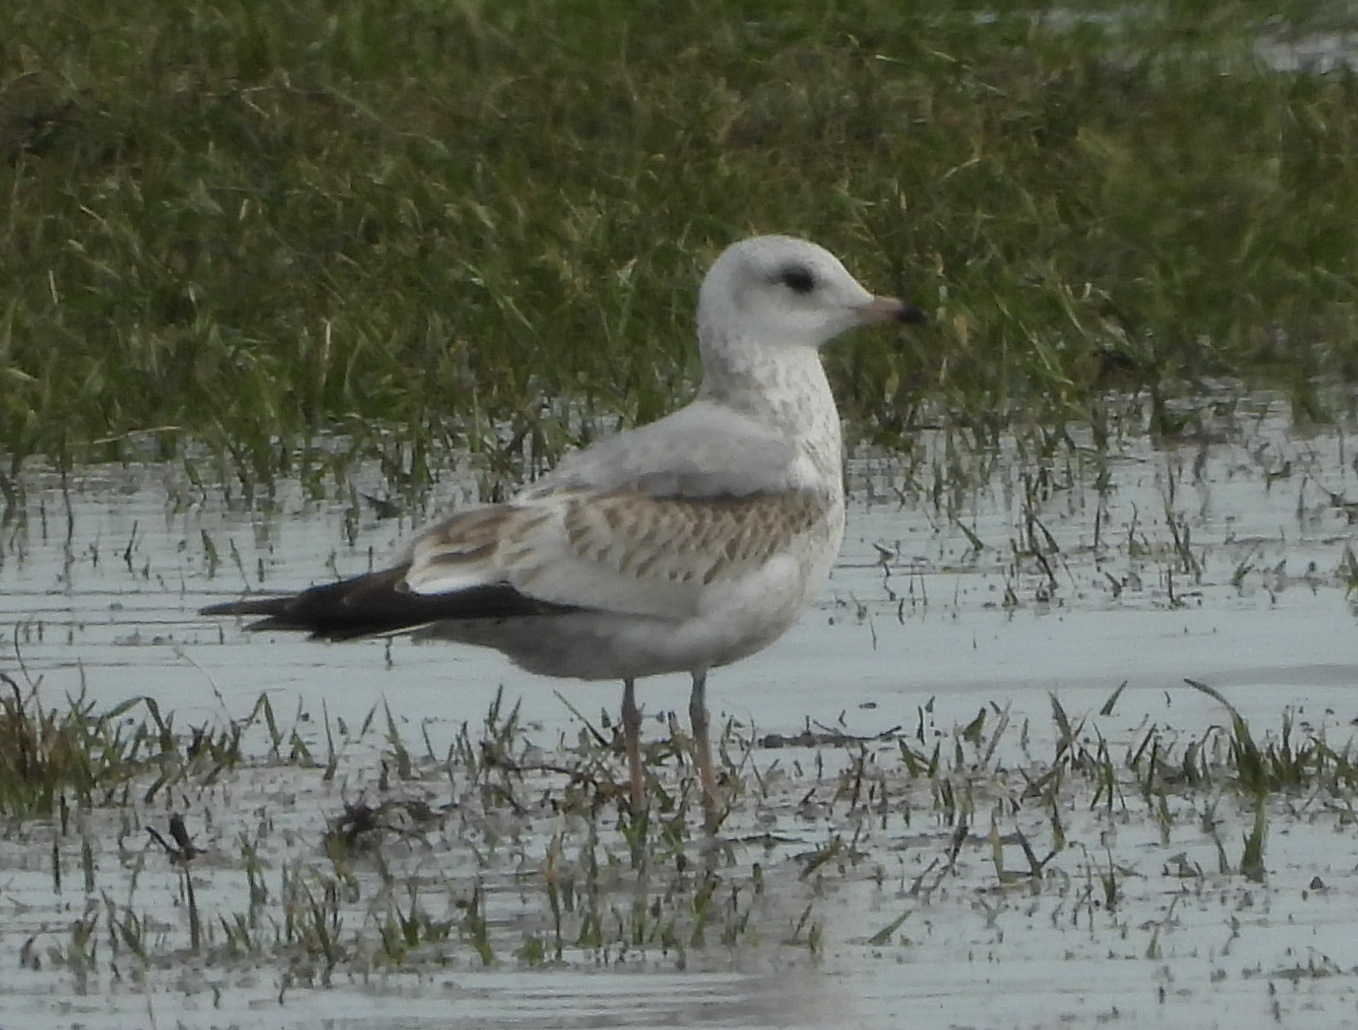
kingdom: Animalia
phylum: Chordata
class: Aves
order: Charadriiformes
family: Laridae
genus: Larus
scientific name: Larus canus
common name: Mew gull
